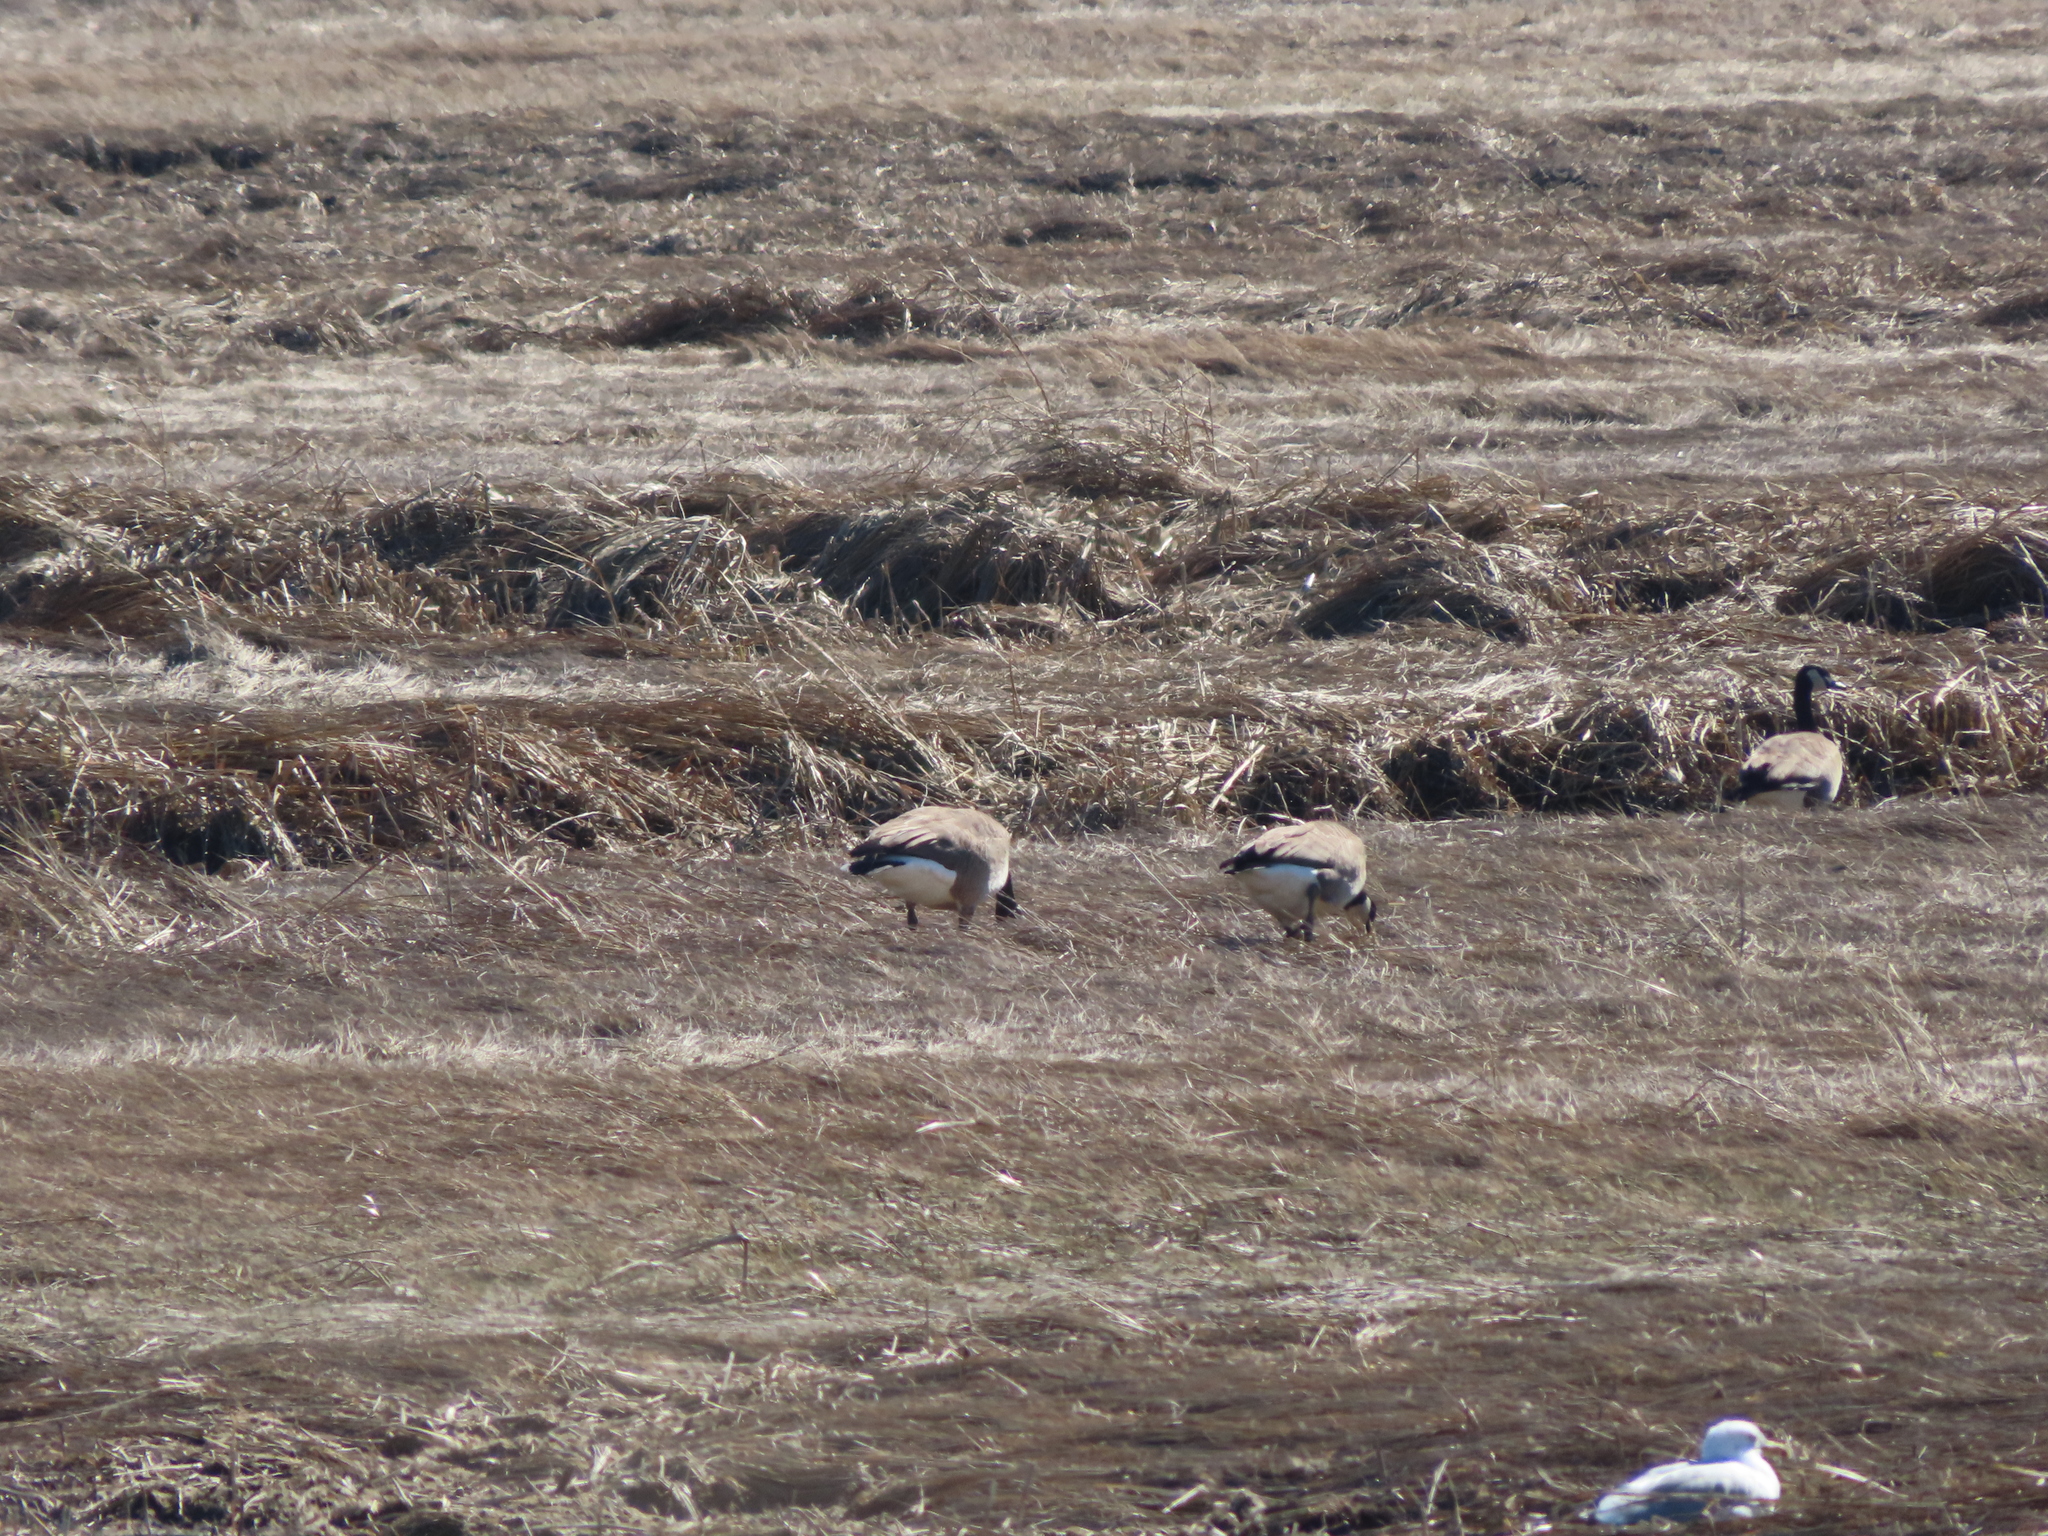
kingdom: Animalia
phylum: Chordata
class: Aves
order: Anseriformes
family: Anatidae
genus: Branta
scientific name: Branta canadensis
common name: Canada goose
